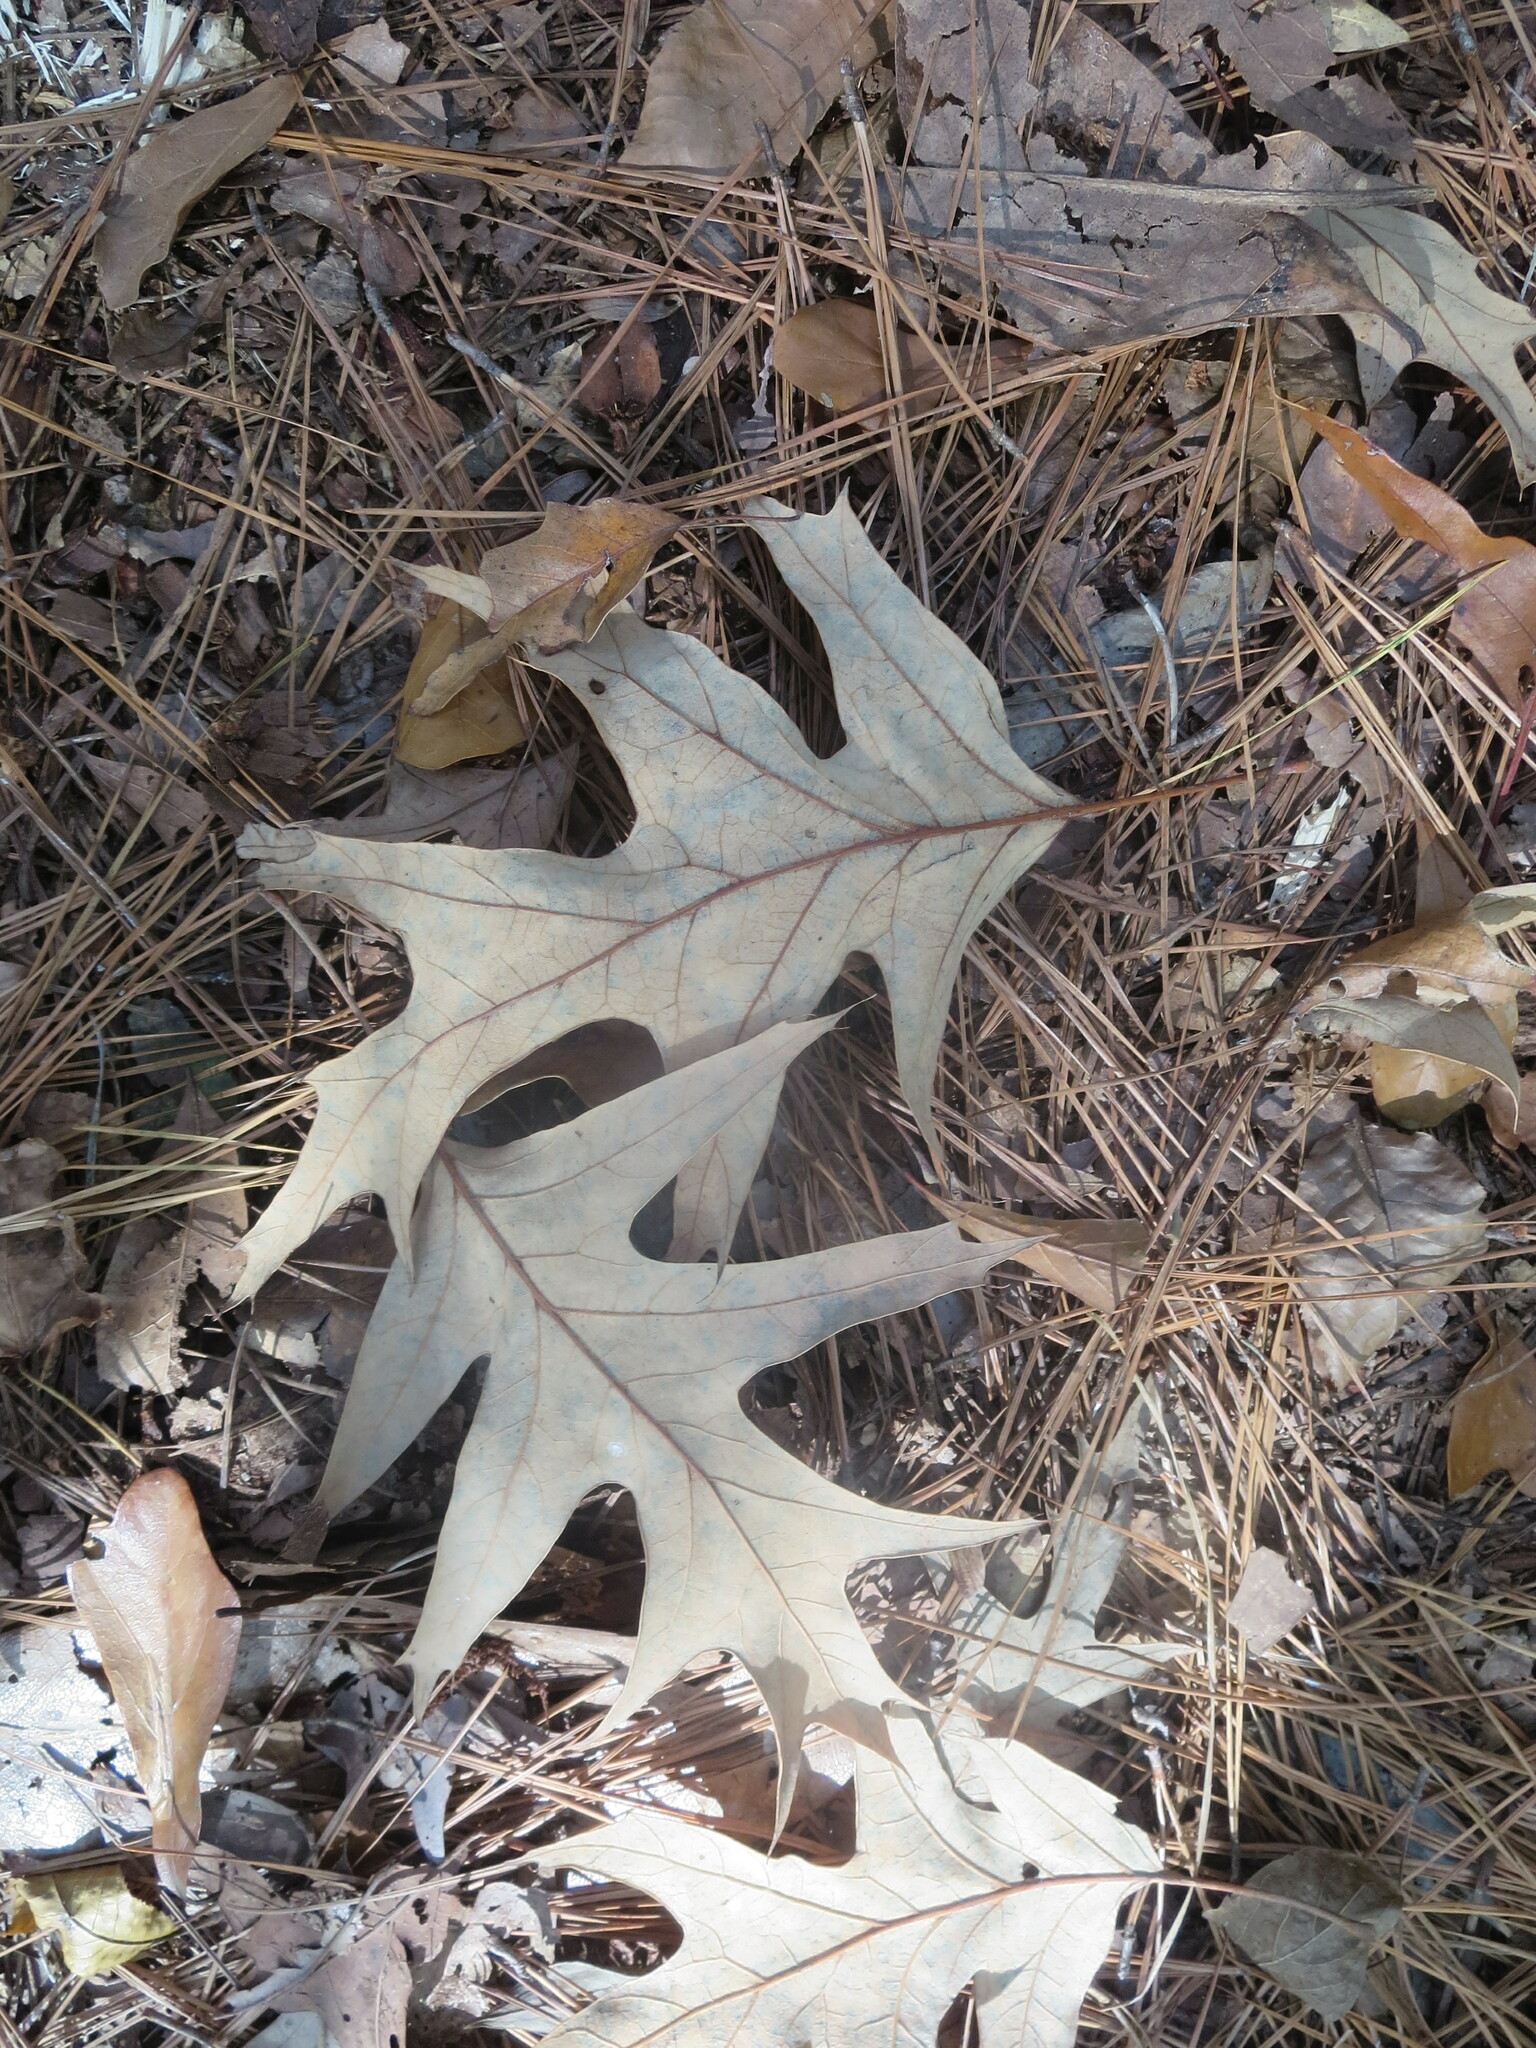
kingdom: Plantae
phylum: Tracheophyta
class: Magnoliopsida
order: Fagales
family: Fagaceae
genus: Quercus
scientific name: Quercus pagoda
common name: Cherrybark oak
